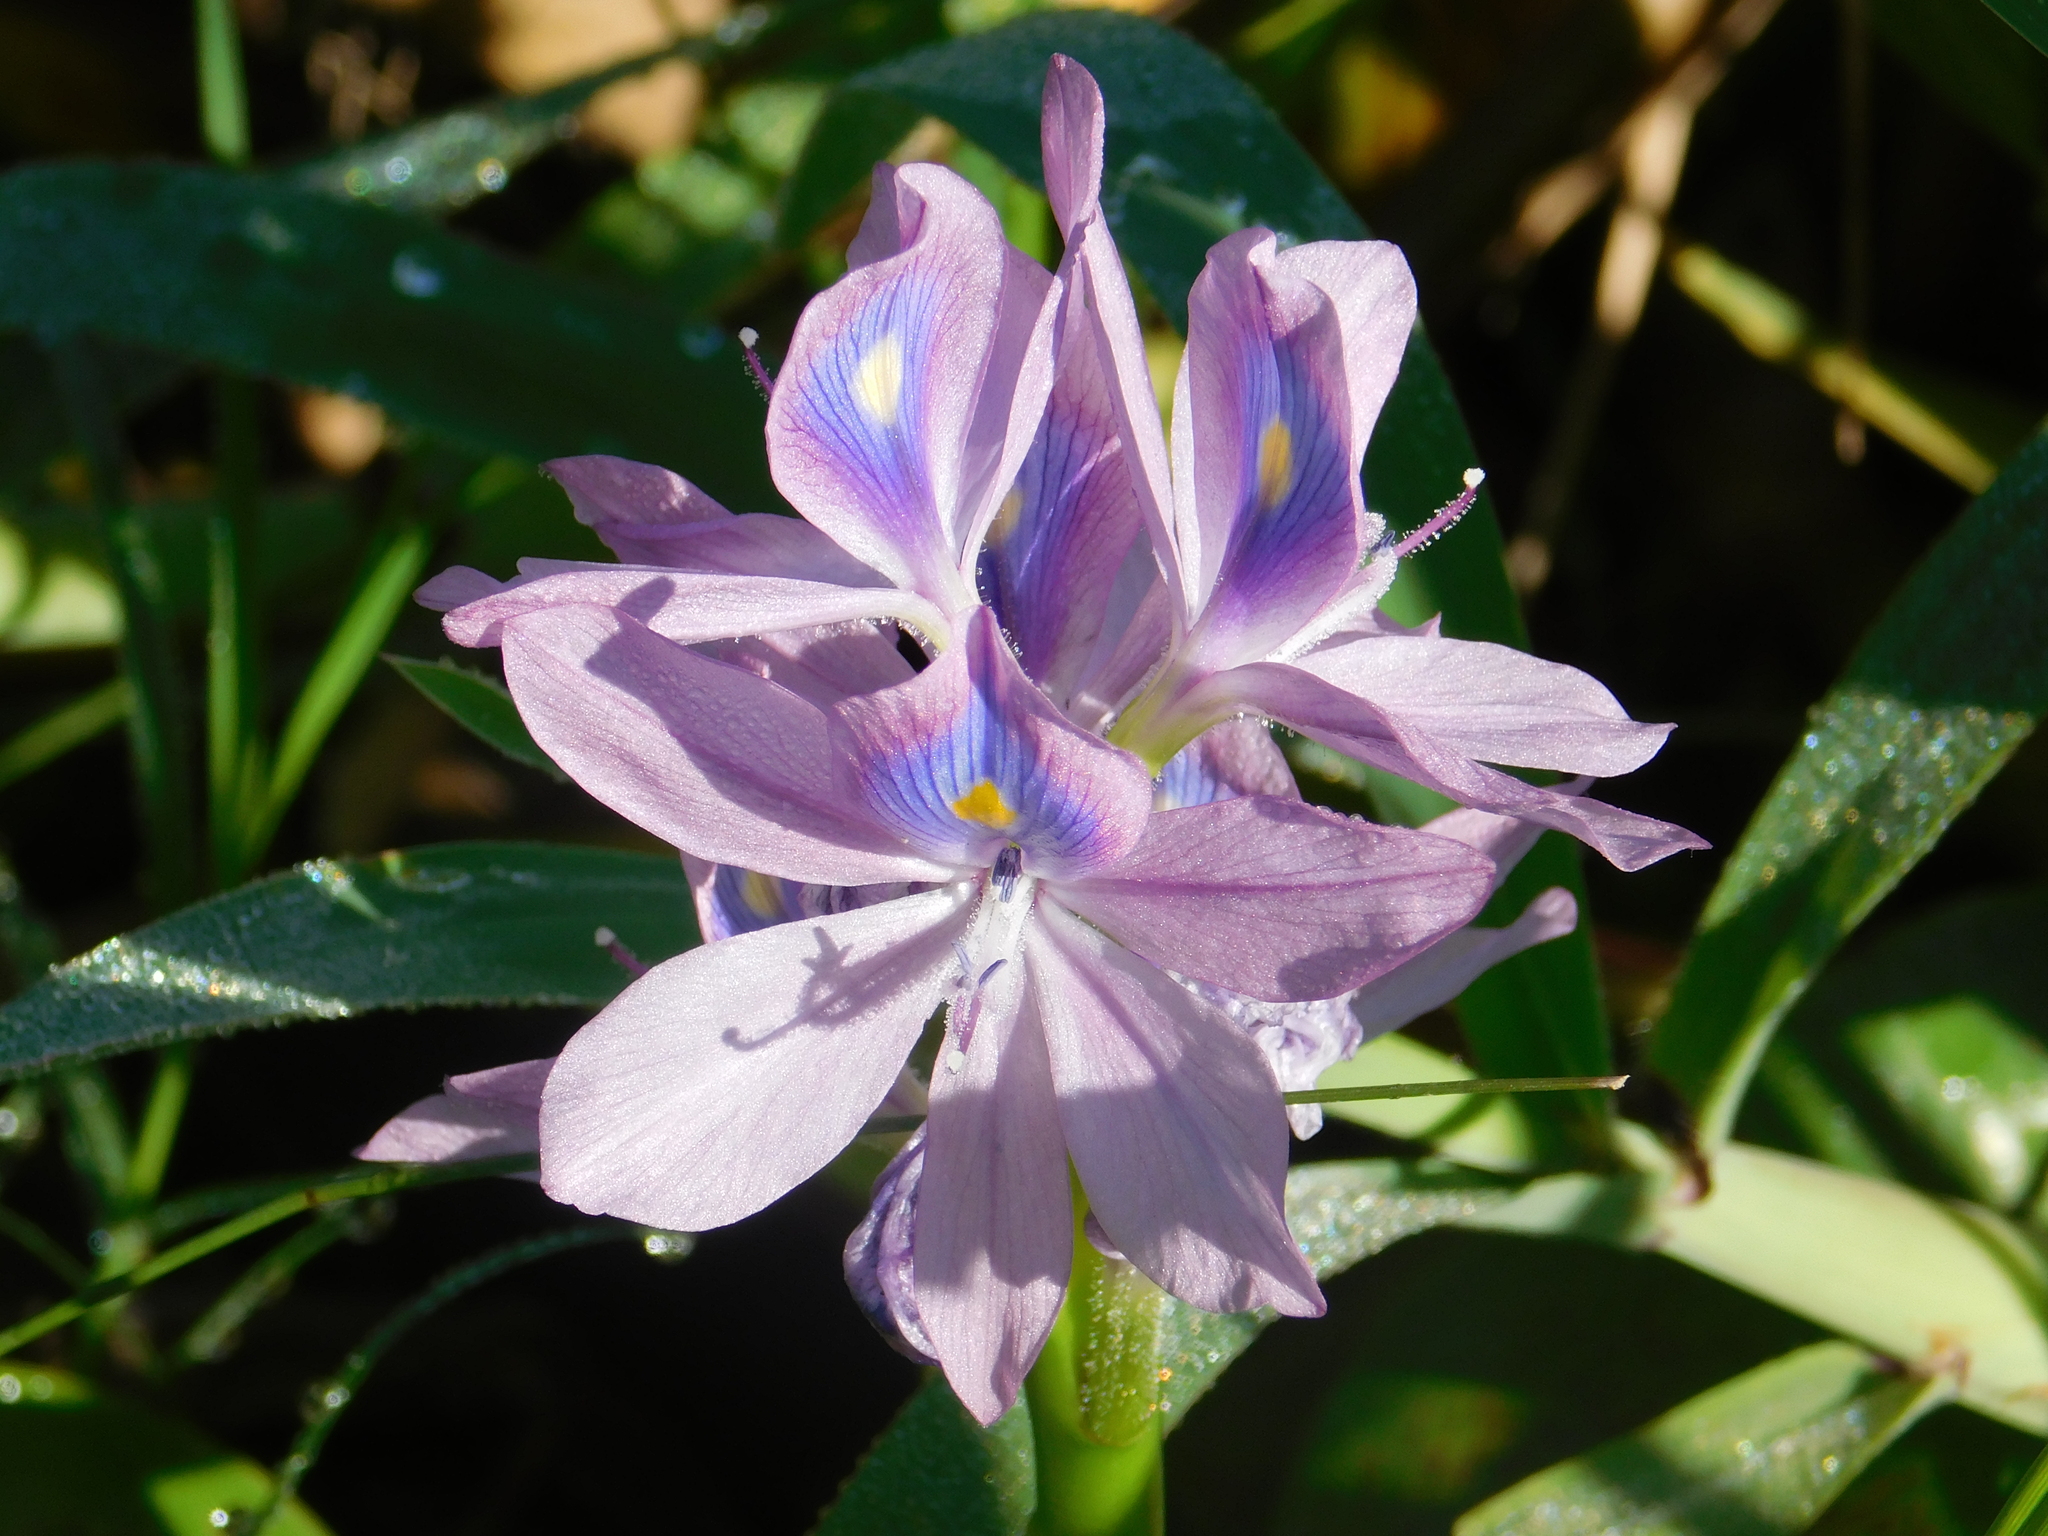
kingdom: Plantae
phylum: Tracheophyta
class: Liliopsida
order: Commelinales
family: Pontederiaceae
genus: Pontederia
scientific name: Pontederia crassipes
